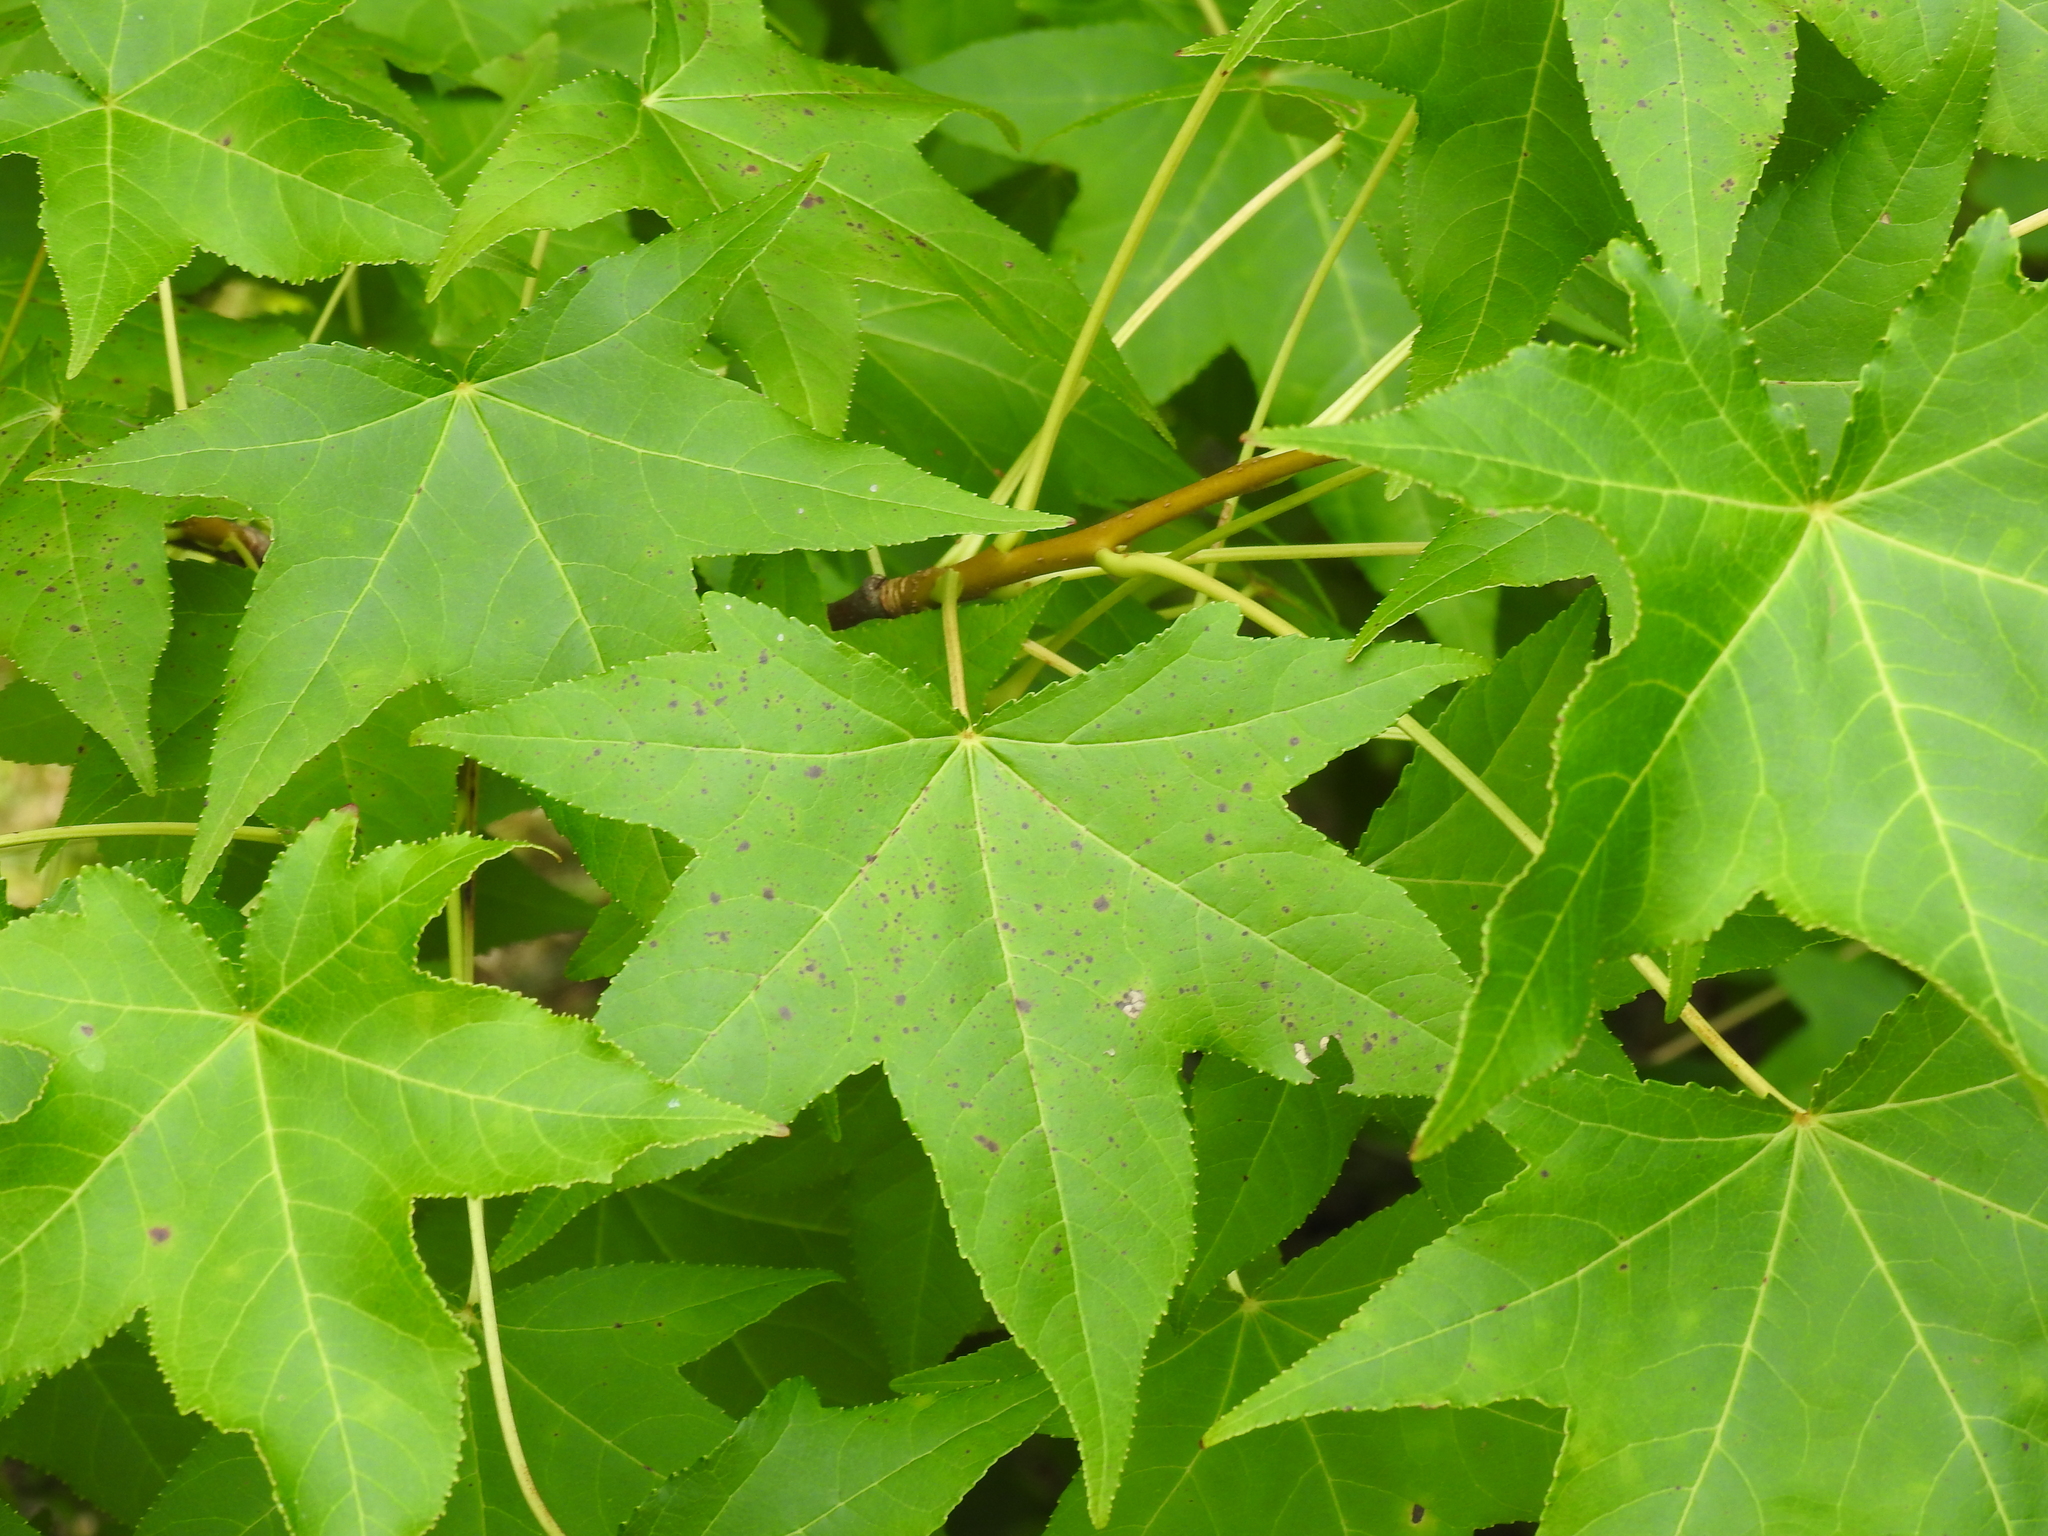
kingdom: Plantae
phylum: Tracheophyta
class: Magnoliopsida
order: Saxifragales
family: Altingiaceae
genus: Liquidambar
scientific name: Liquidambar styraciflua
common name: Sweet gum
